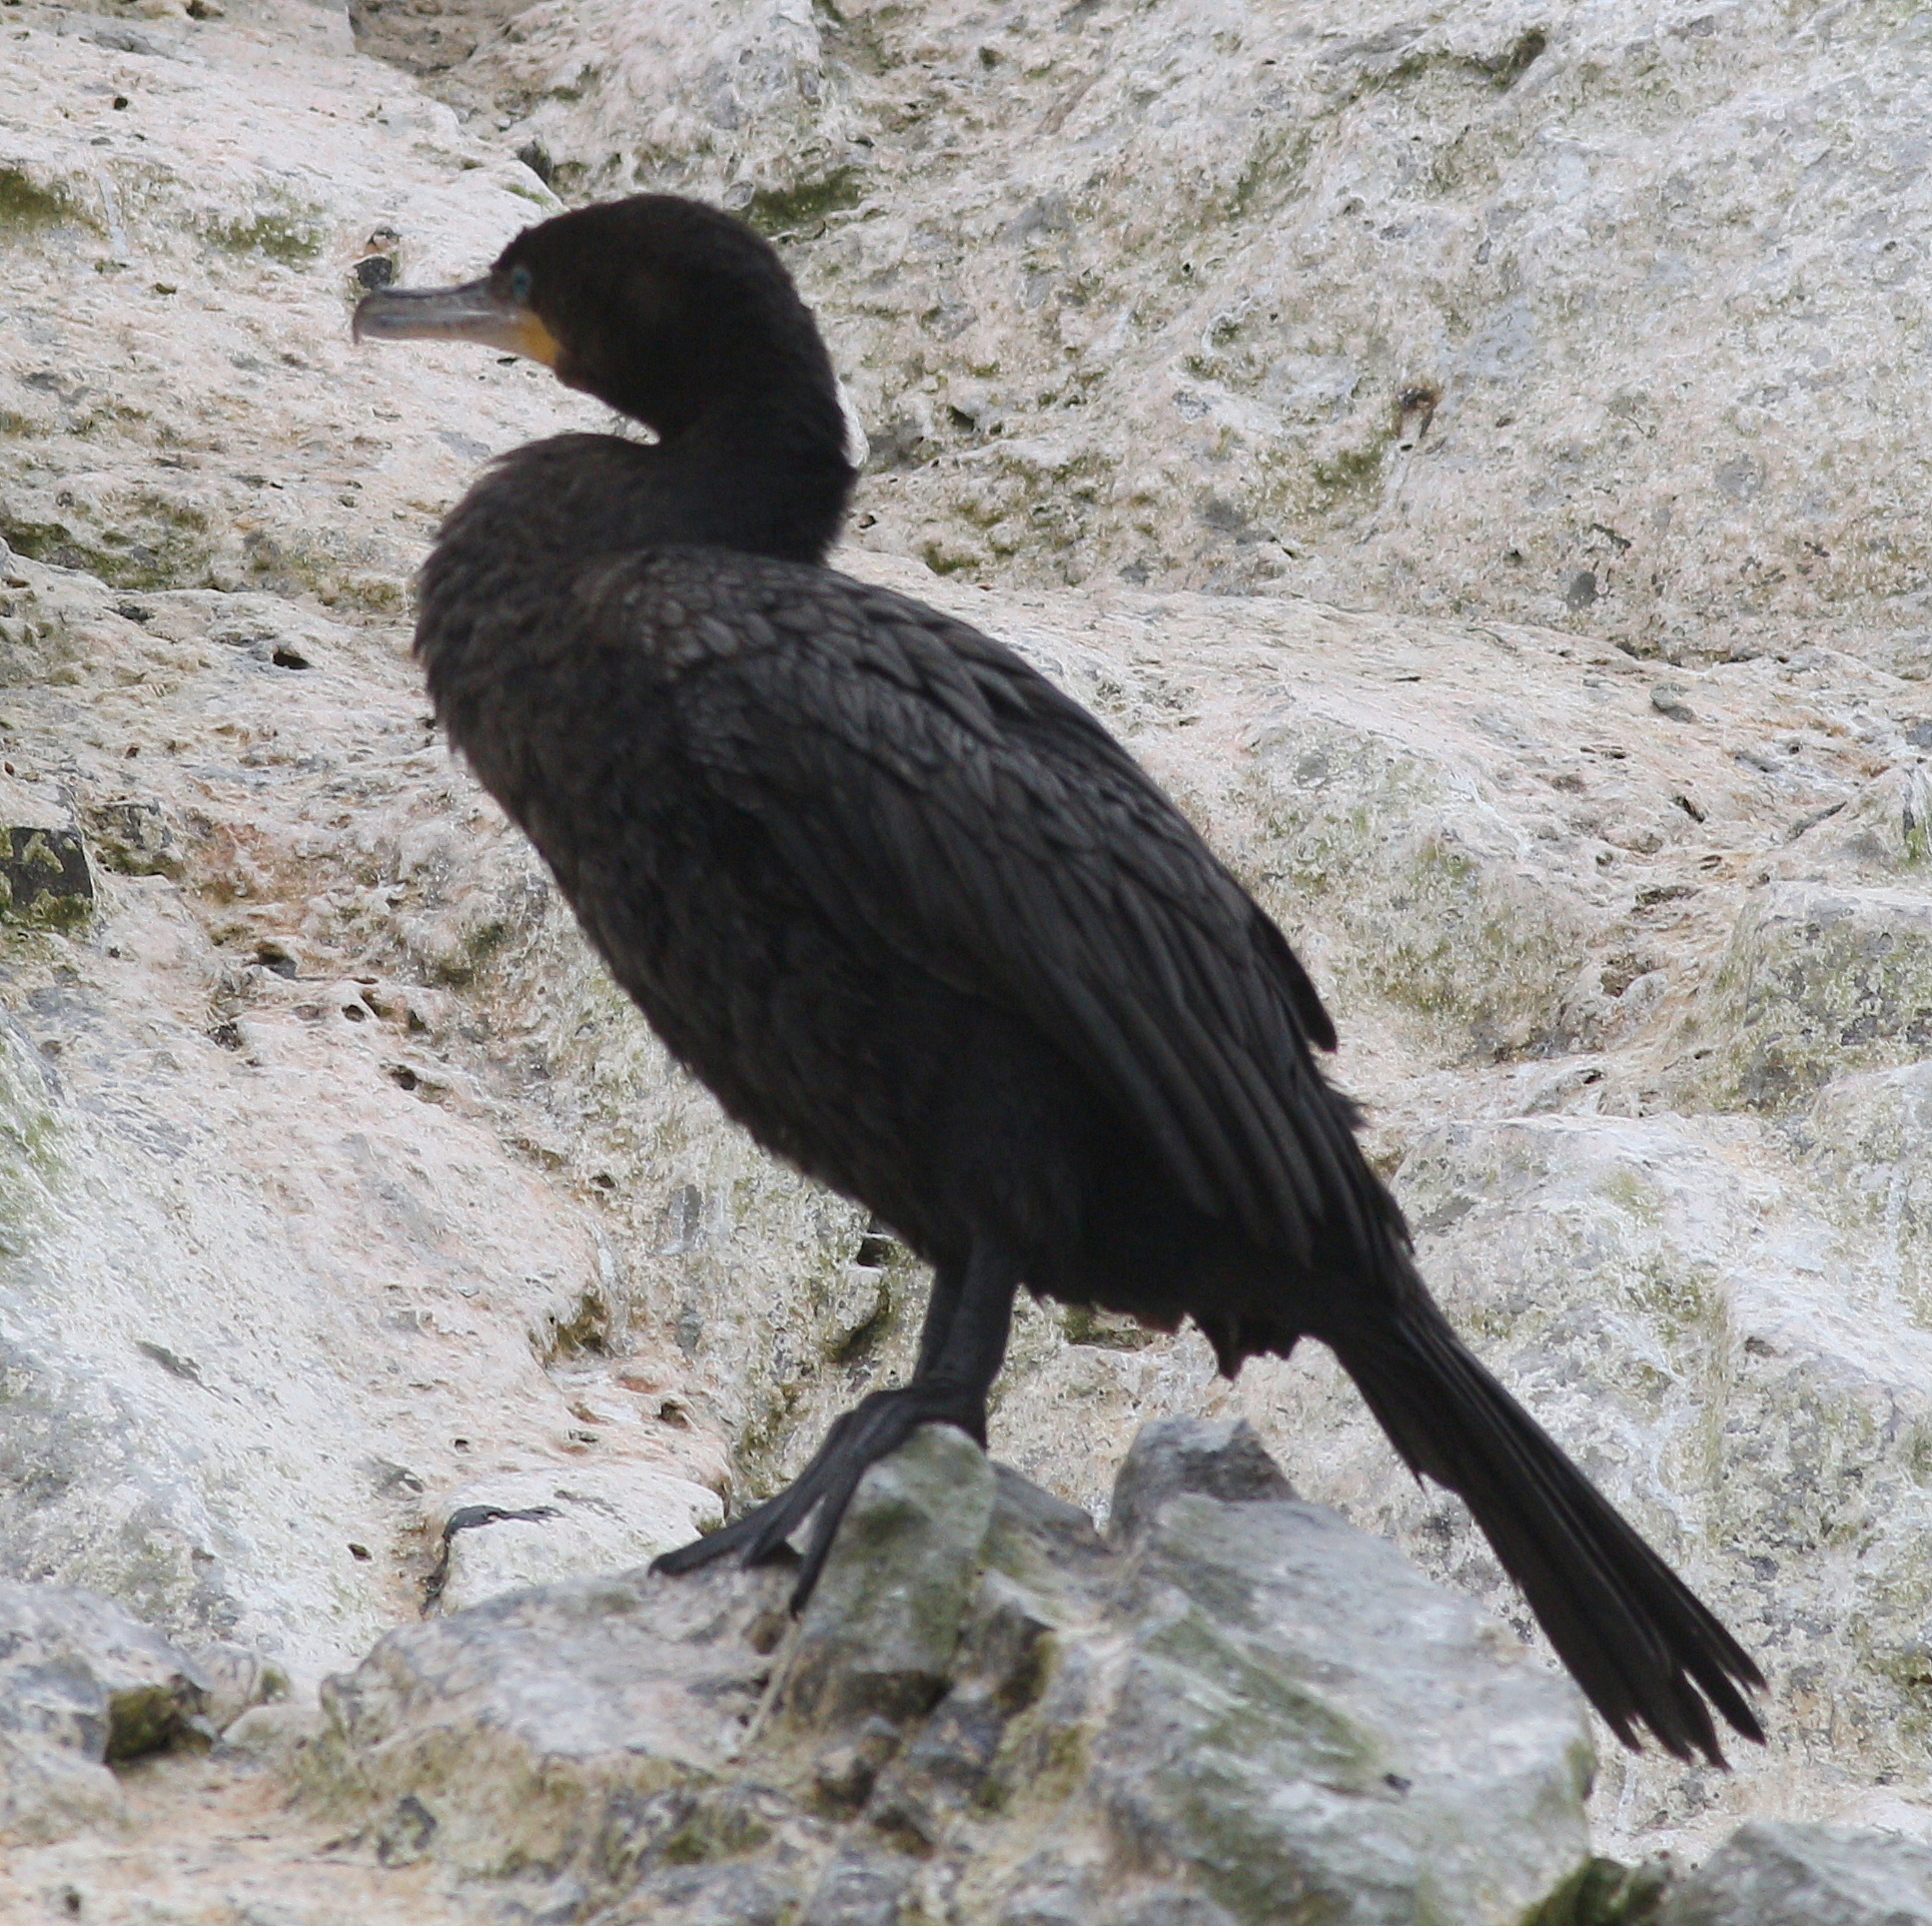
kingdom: Animalia
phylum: Chordata
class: Aves
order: Suliformes
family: Phalacrocoracidae
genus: Phalacrocorax
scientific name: Phalacrocorax brasilianus
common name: Neotropic cormorant
